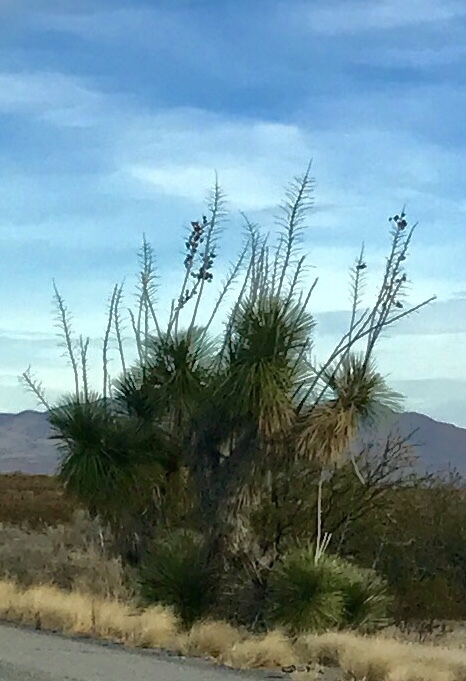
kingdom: Plantae
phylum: Tracheophyta
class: Liliopsida
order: Asparagales
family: Asparagaceae
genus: Yucca
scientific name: Yucca elata
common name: Palmella
